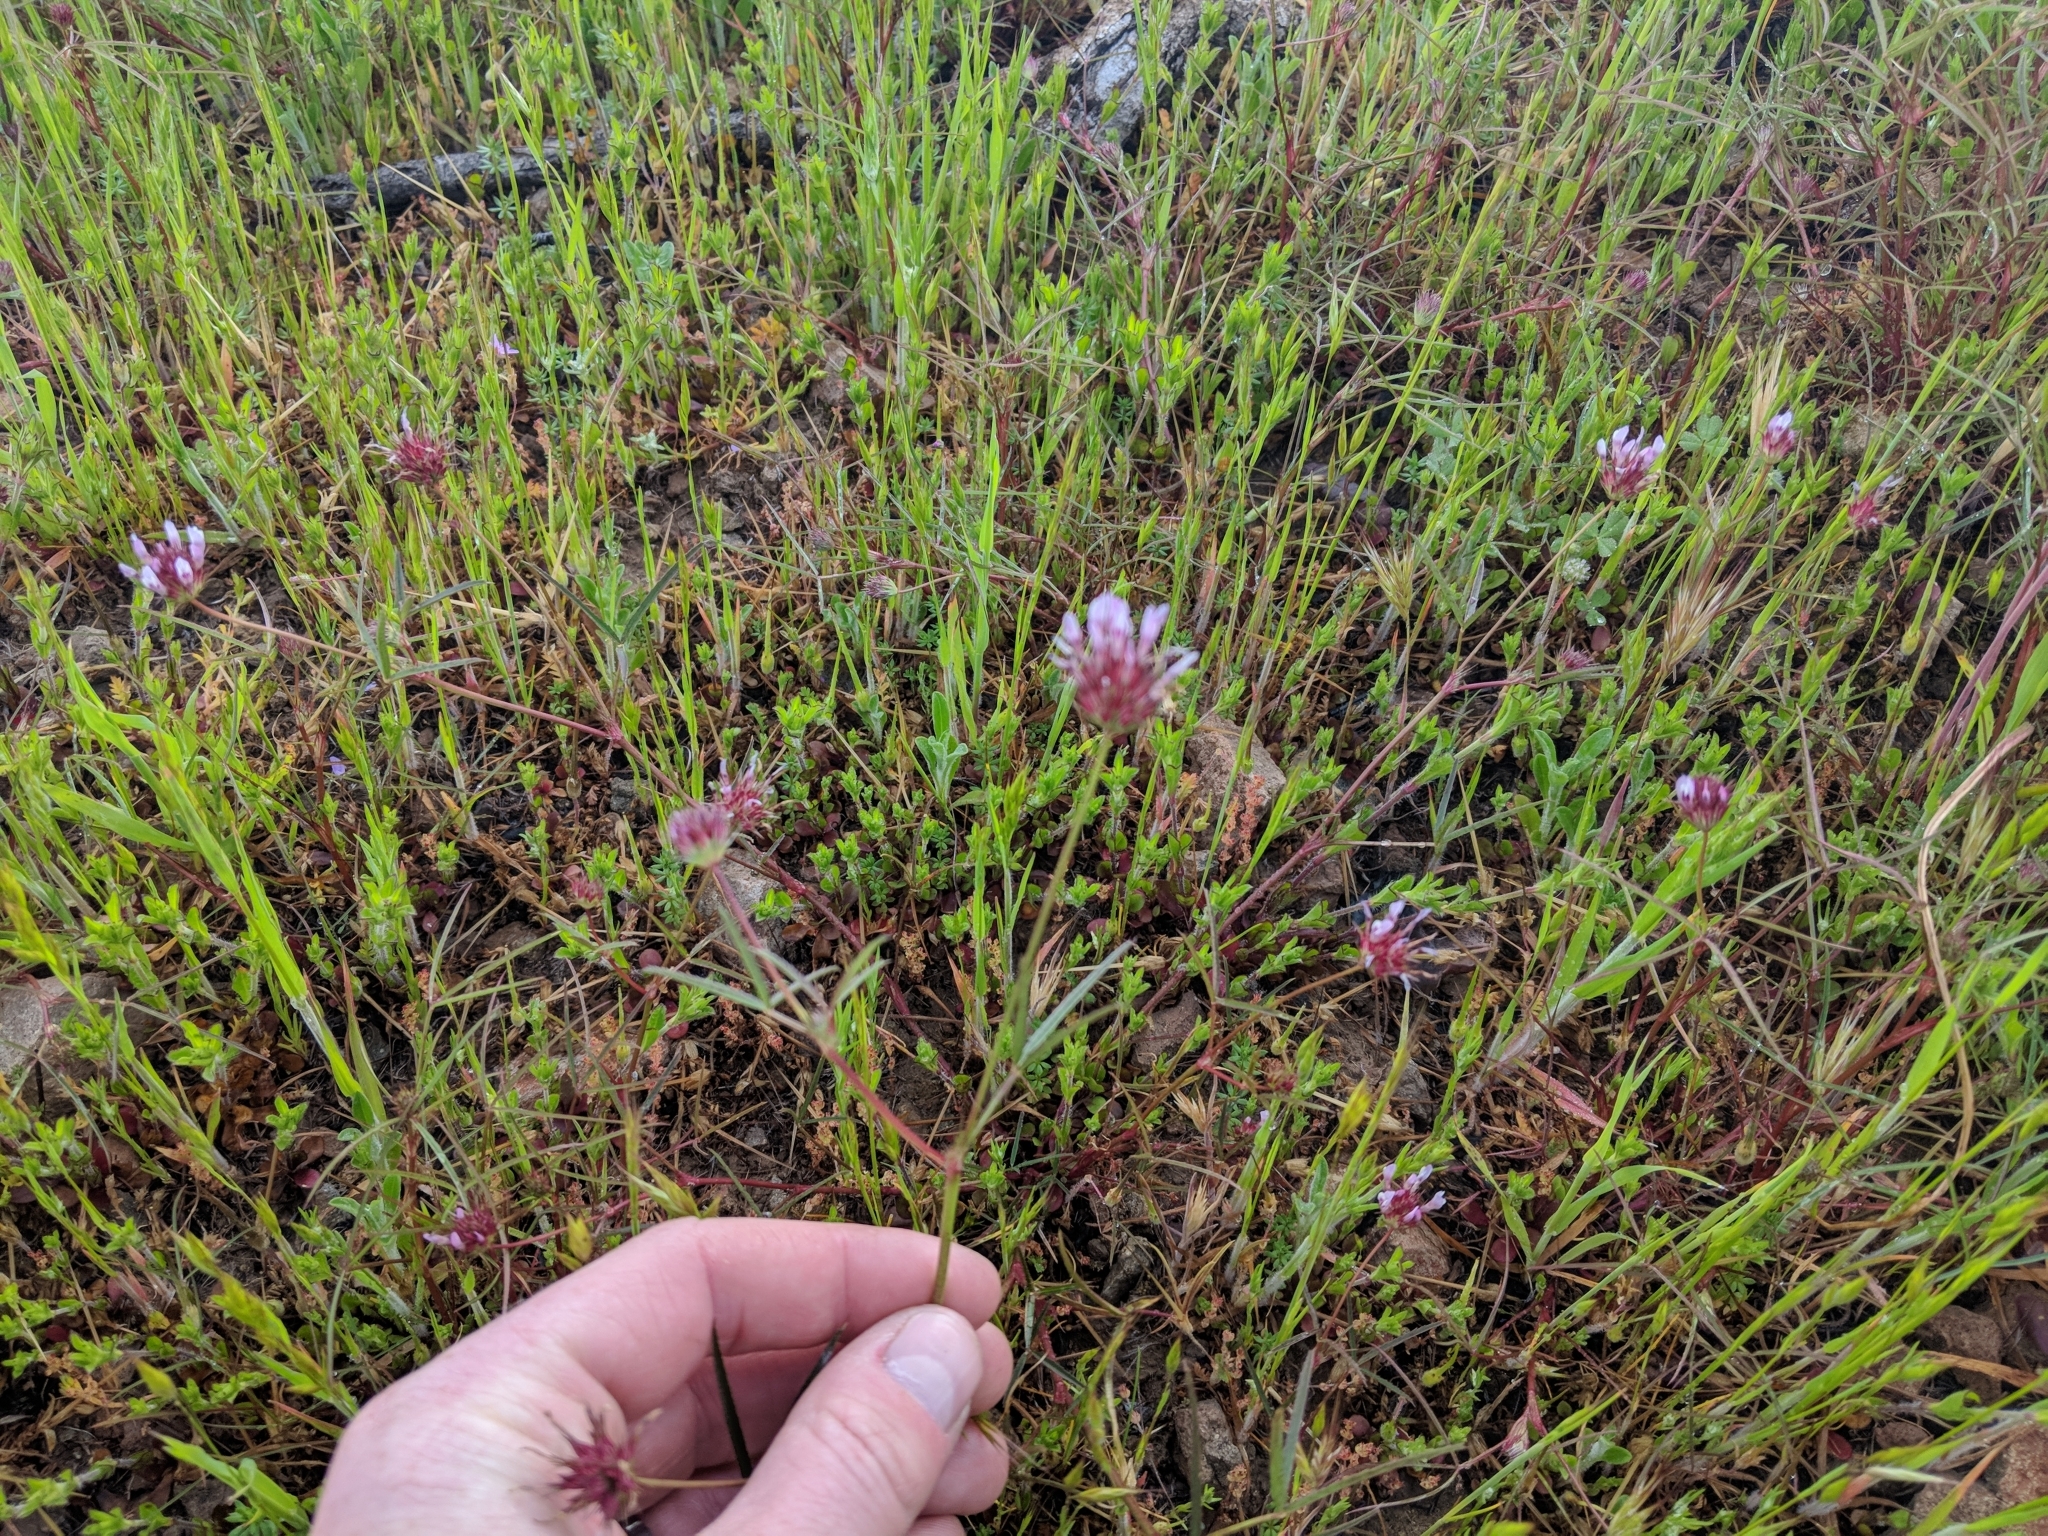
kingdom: Plantae
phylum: Tracheophyta
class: Magnoliopsida
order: Fabales
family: Fabaceae
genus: Trifolium
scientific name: Trifolium willdenovii
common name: Tomcat clover
